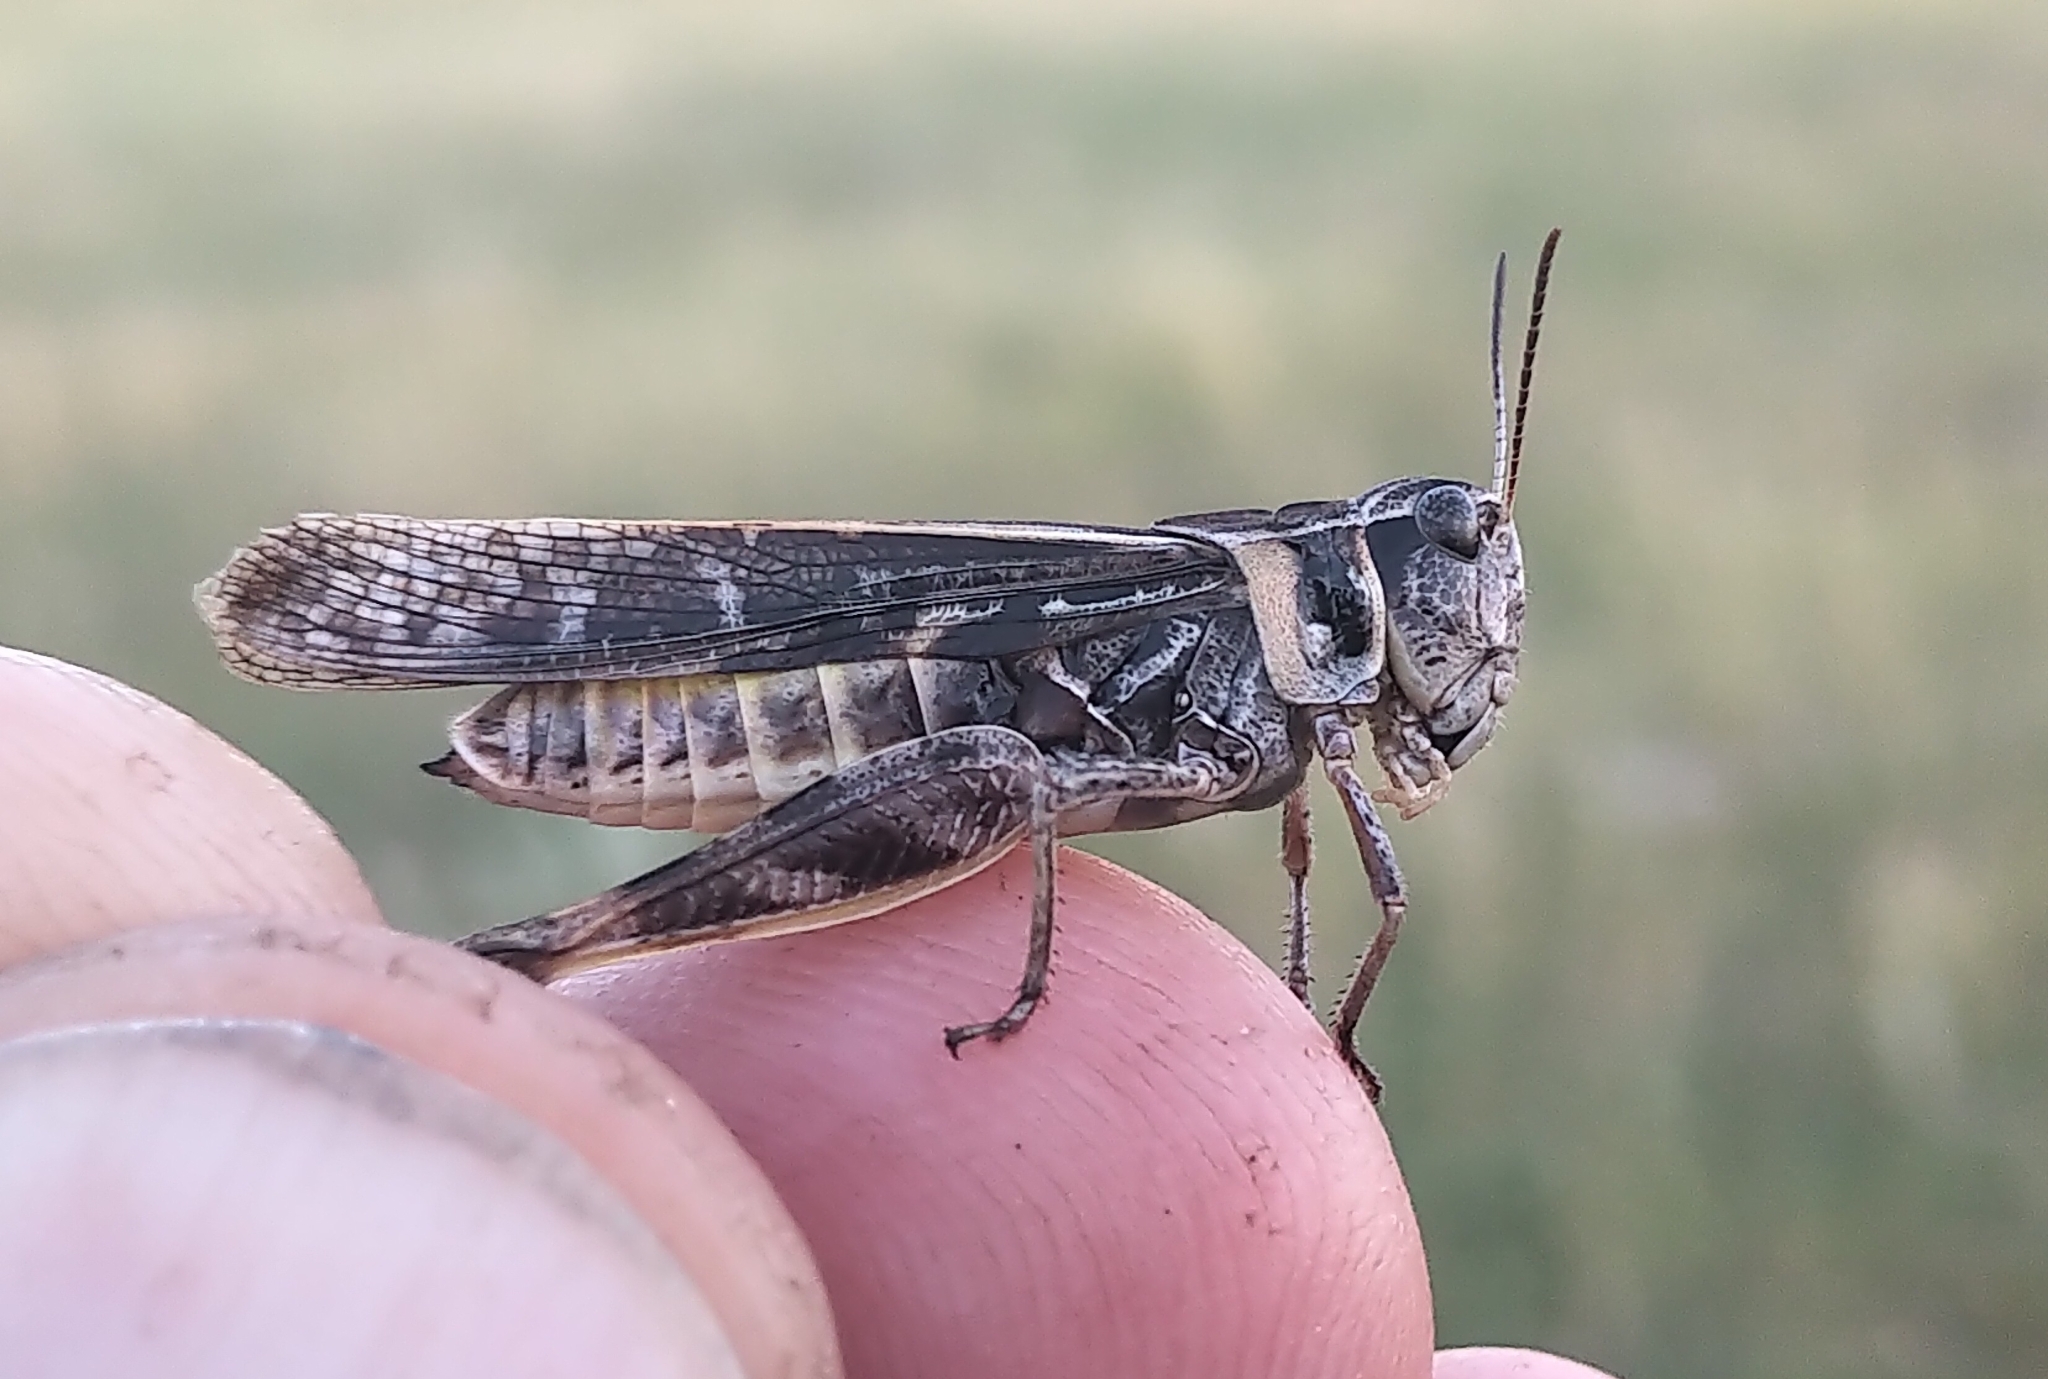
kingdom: Animalia
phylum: Arthropoda
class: Insecta
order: Orthoptera
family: Acrididae
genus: Camnula
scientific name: Camnula pellucida
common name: Clear-winged grasshopper
